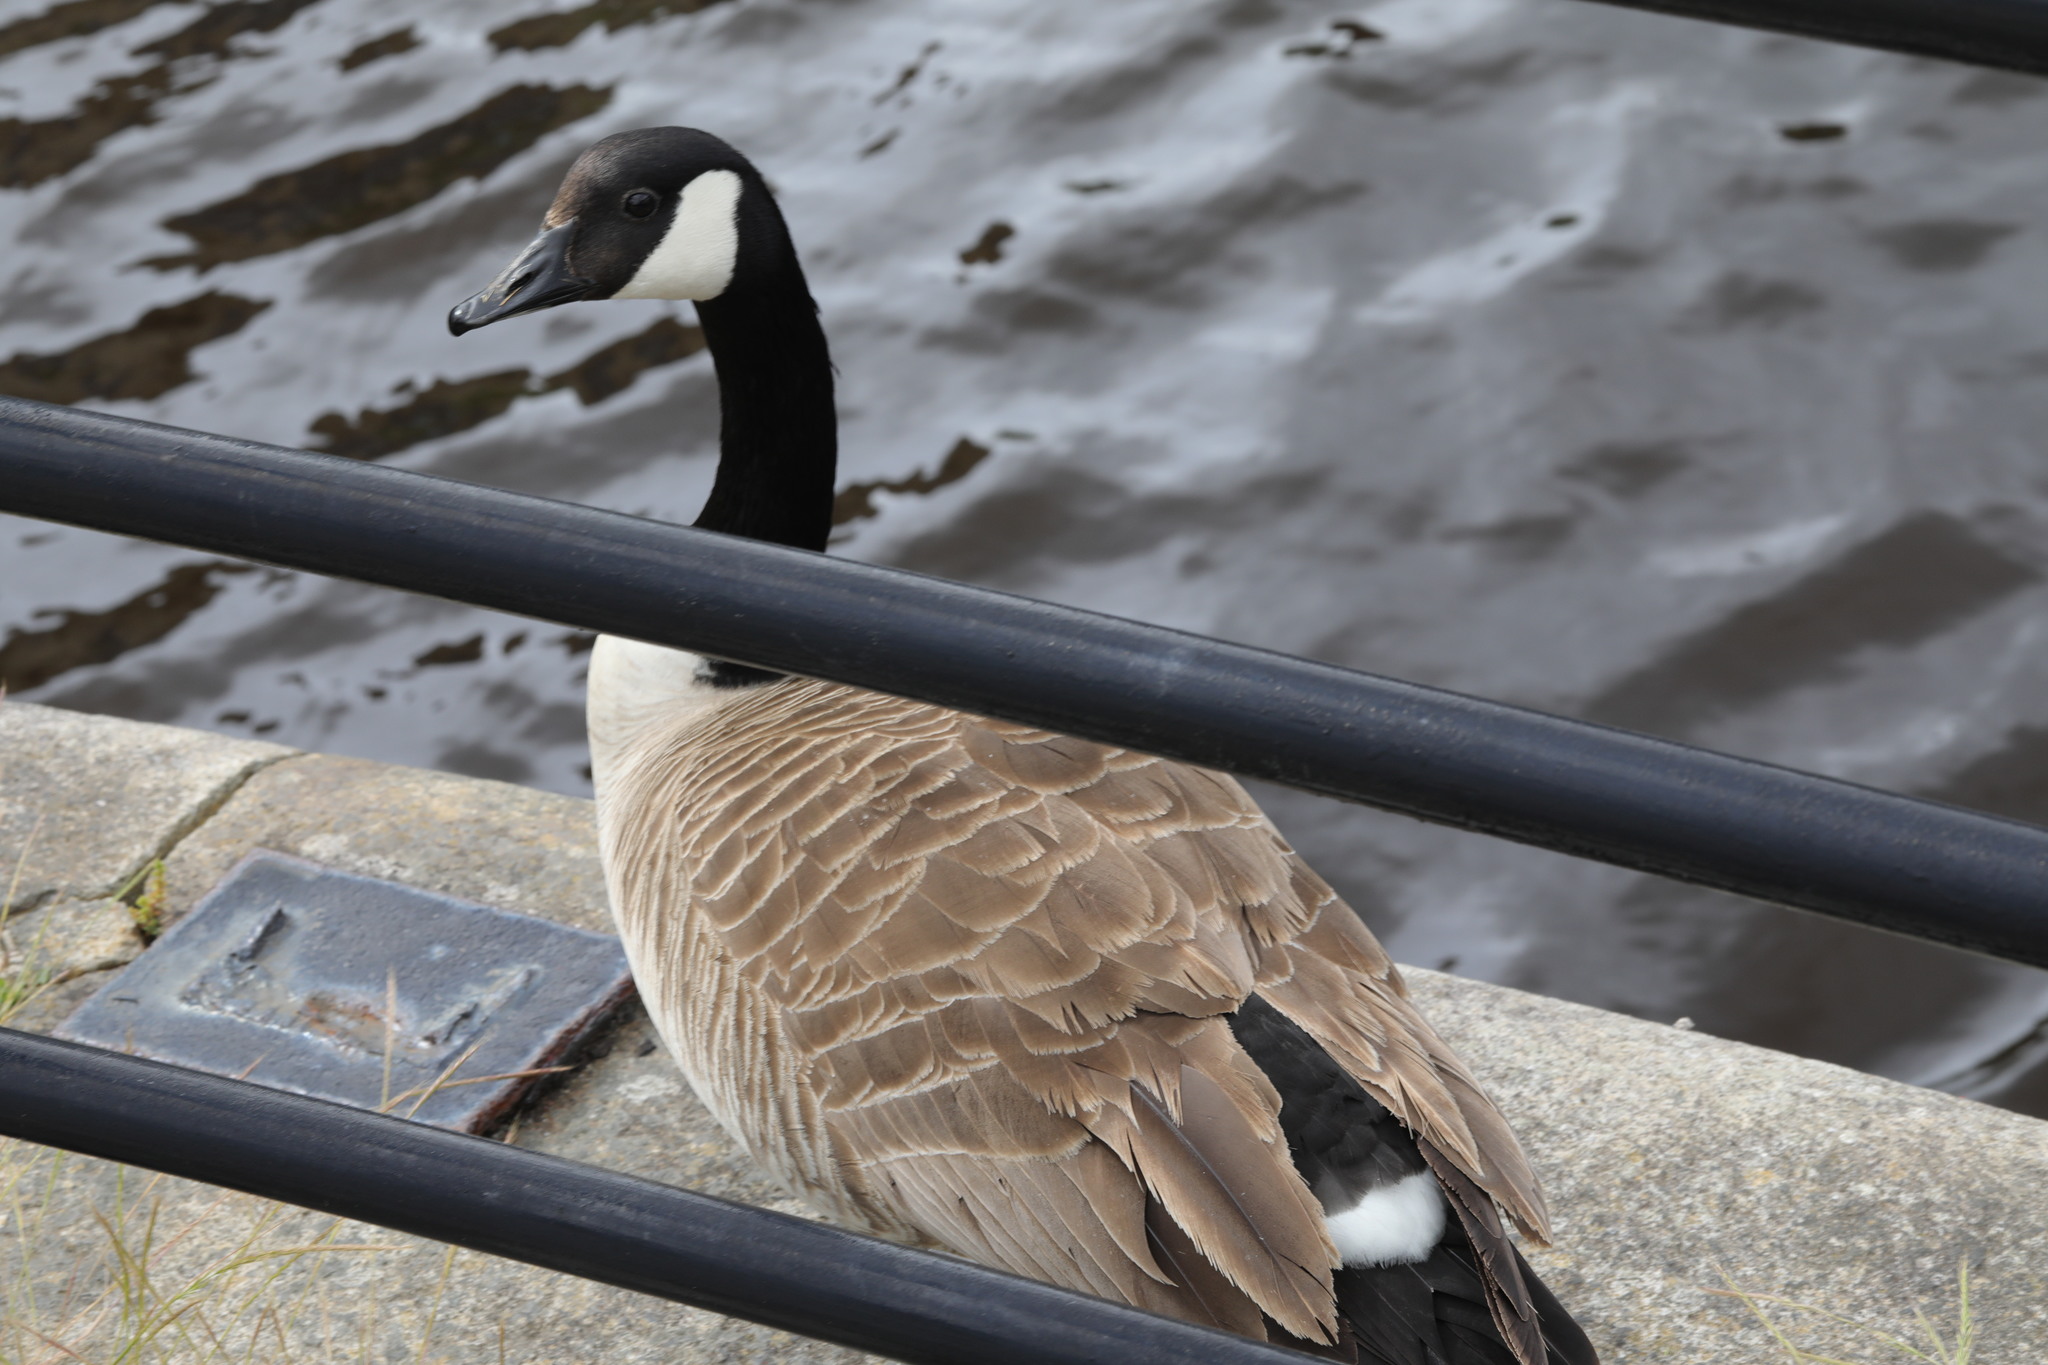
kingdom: Animalia
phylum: Chordata
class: Aves
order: Anseriformes
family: Anatidae
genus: Branta
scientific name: Branta canadensis
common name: Canada goose
